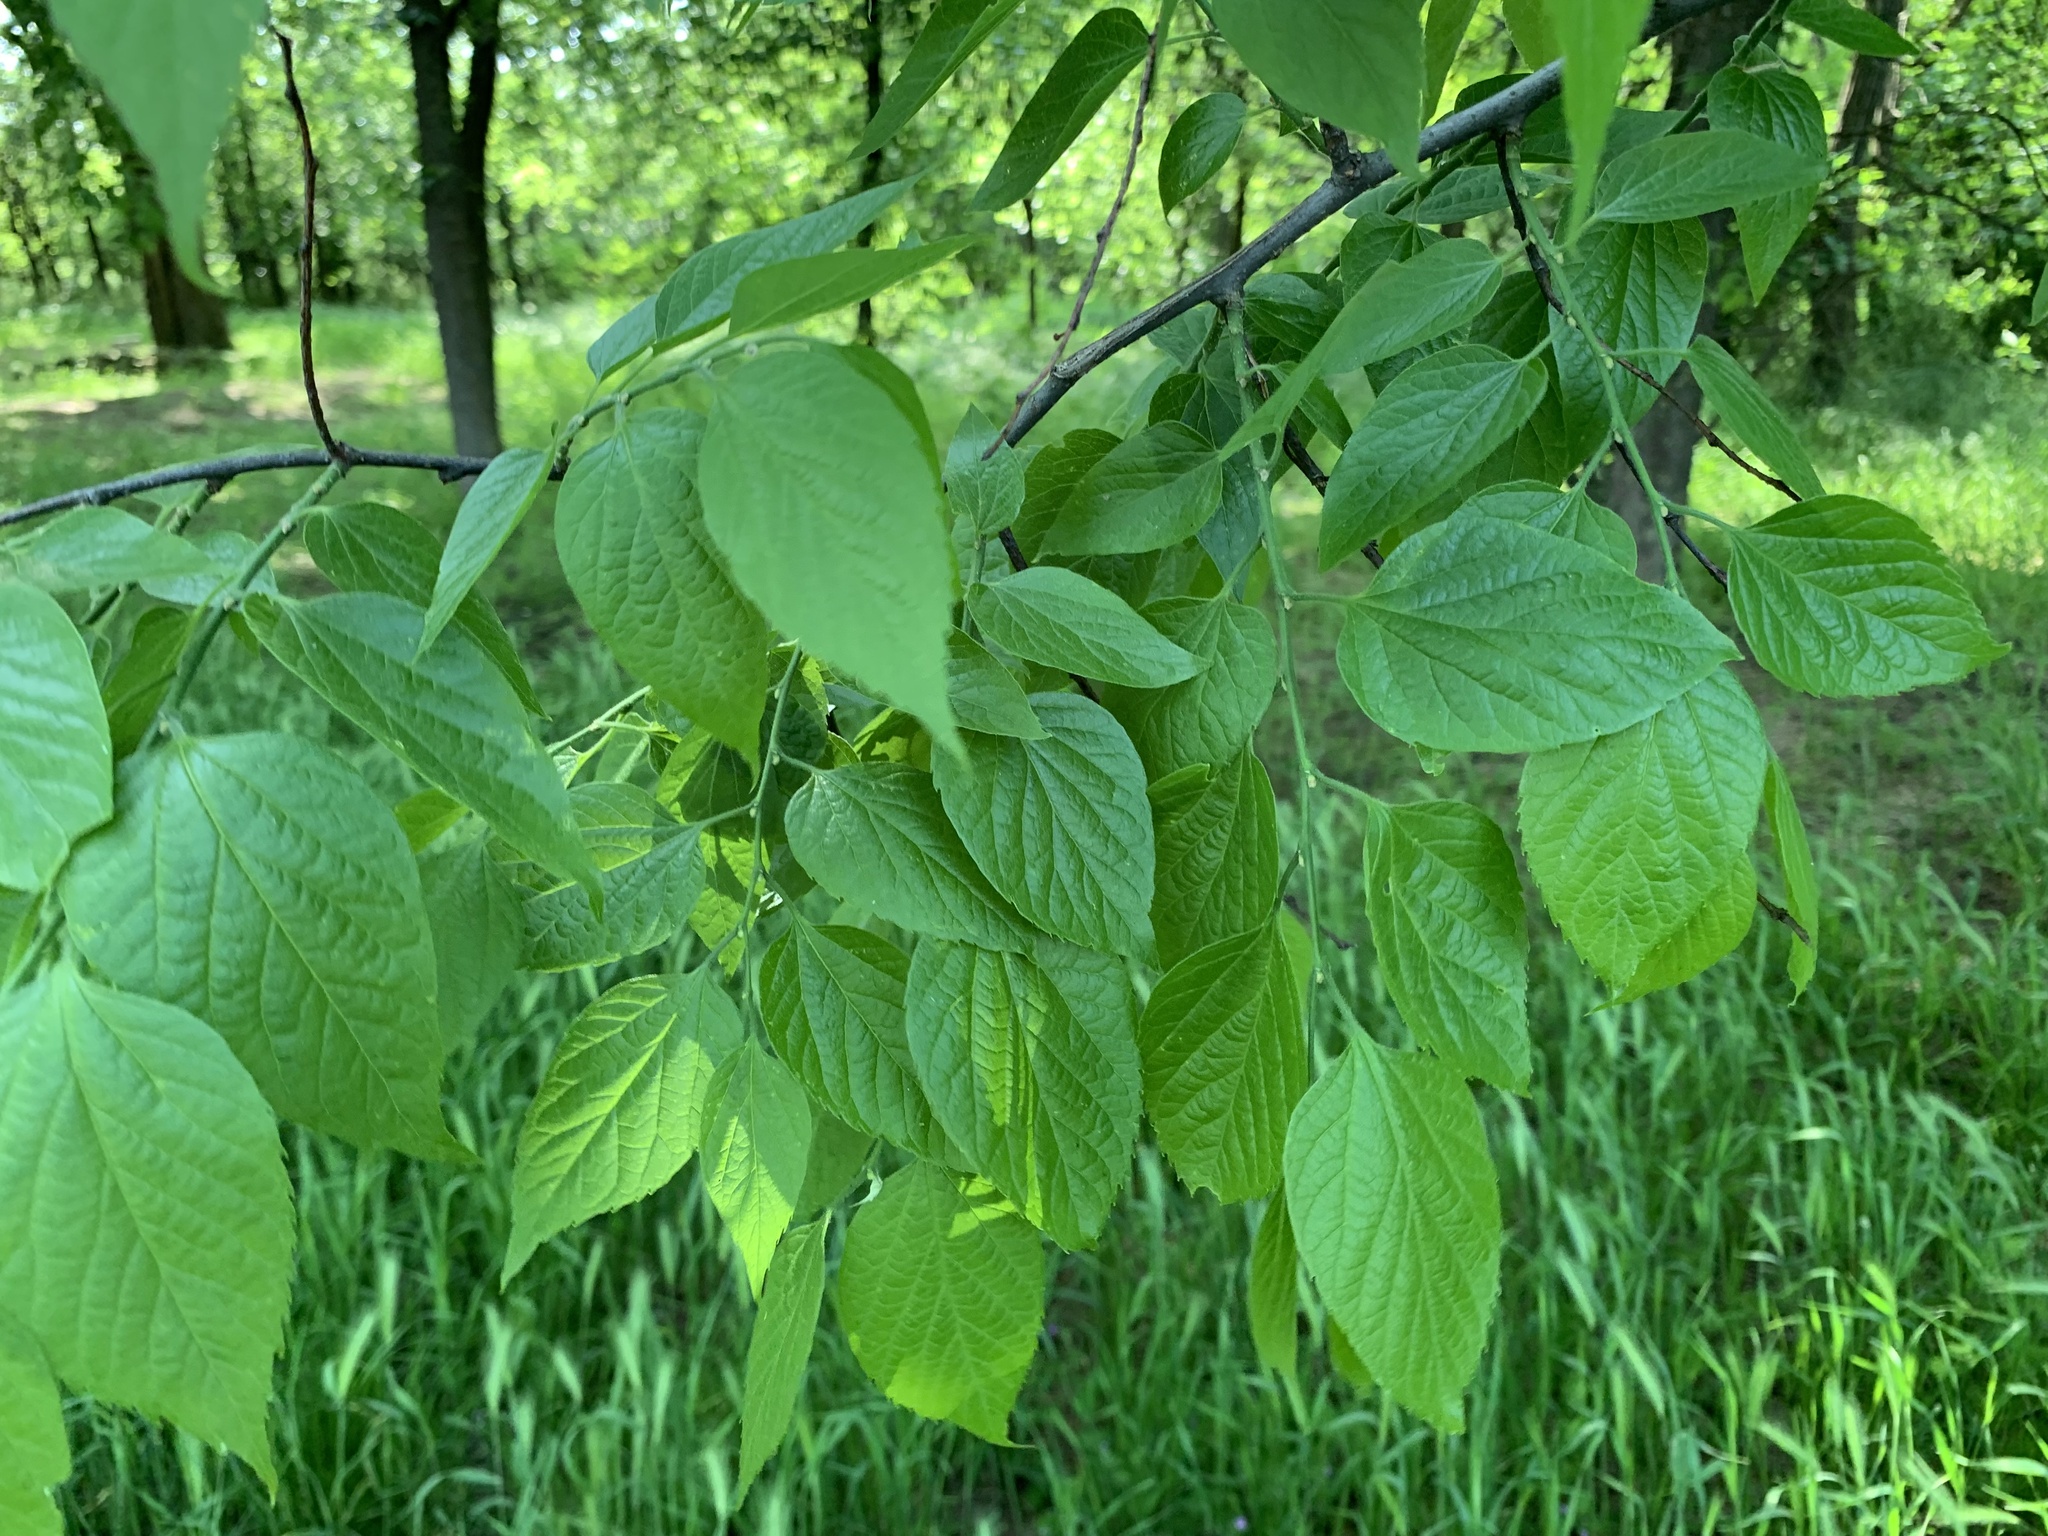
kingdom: Plantae
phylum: Tracheophyta
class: Magnoliopsida
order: Rosales
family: Cannabaceae
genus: Celtis
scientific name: Celtis occidentalis
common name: Common hackberry
